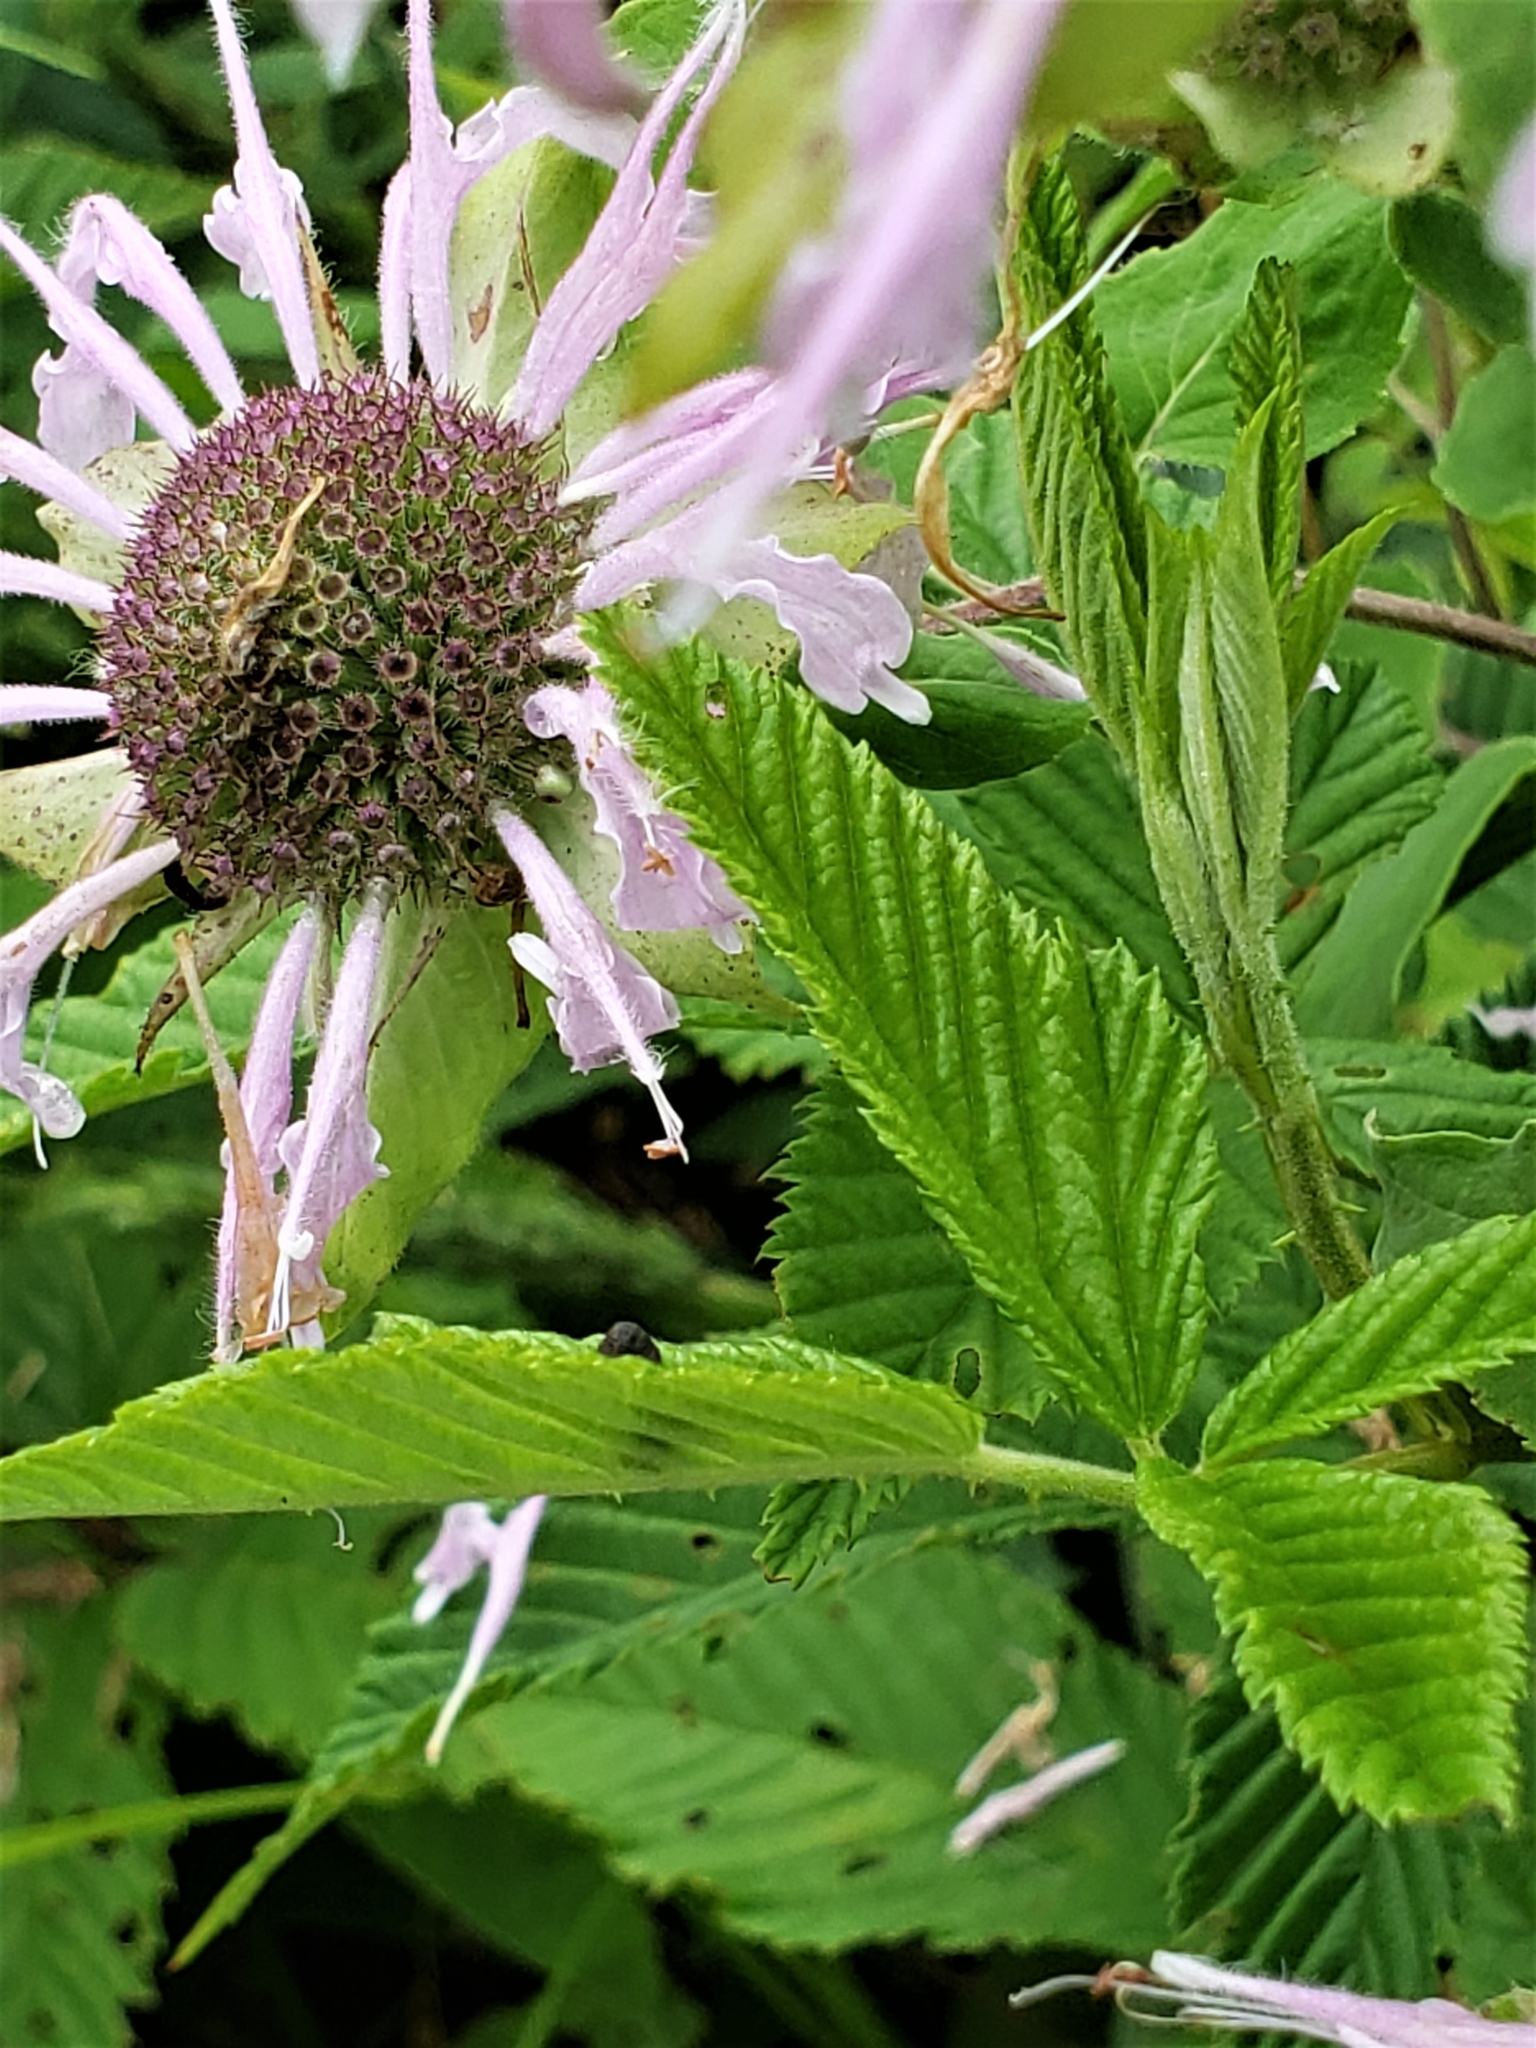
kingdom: Plantae
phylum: Tracheophyta
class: Magnoliopsida
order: Lamiales
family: Lamiaceae
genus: Monarda
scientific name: Monarda fistulosa
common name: Purple beebalm
